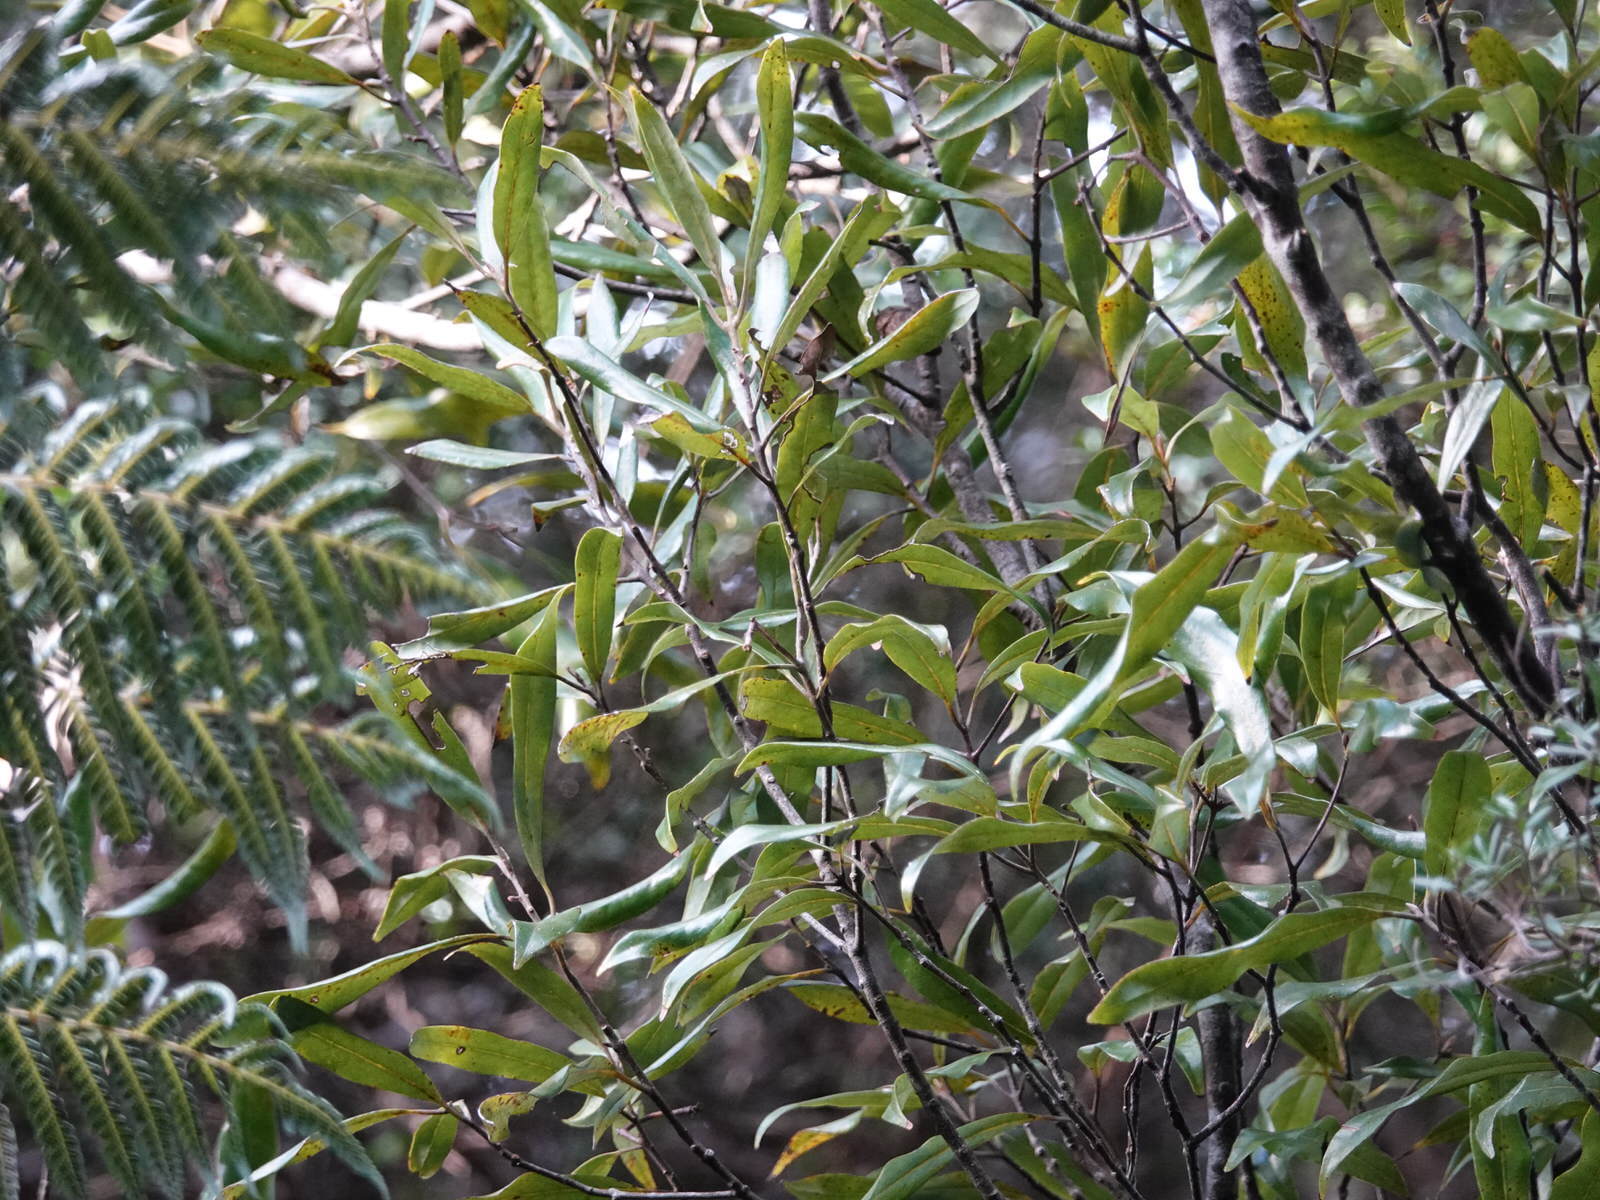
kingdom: Plantae
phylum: Tracheophyta
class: Magnoliopsida
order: Laurales
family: Lauraceae
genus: Beilschmiedia
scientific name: Beilschmiedia tawa
